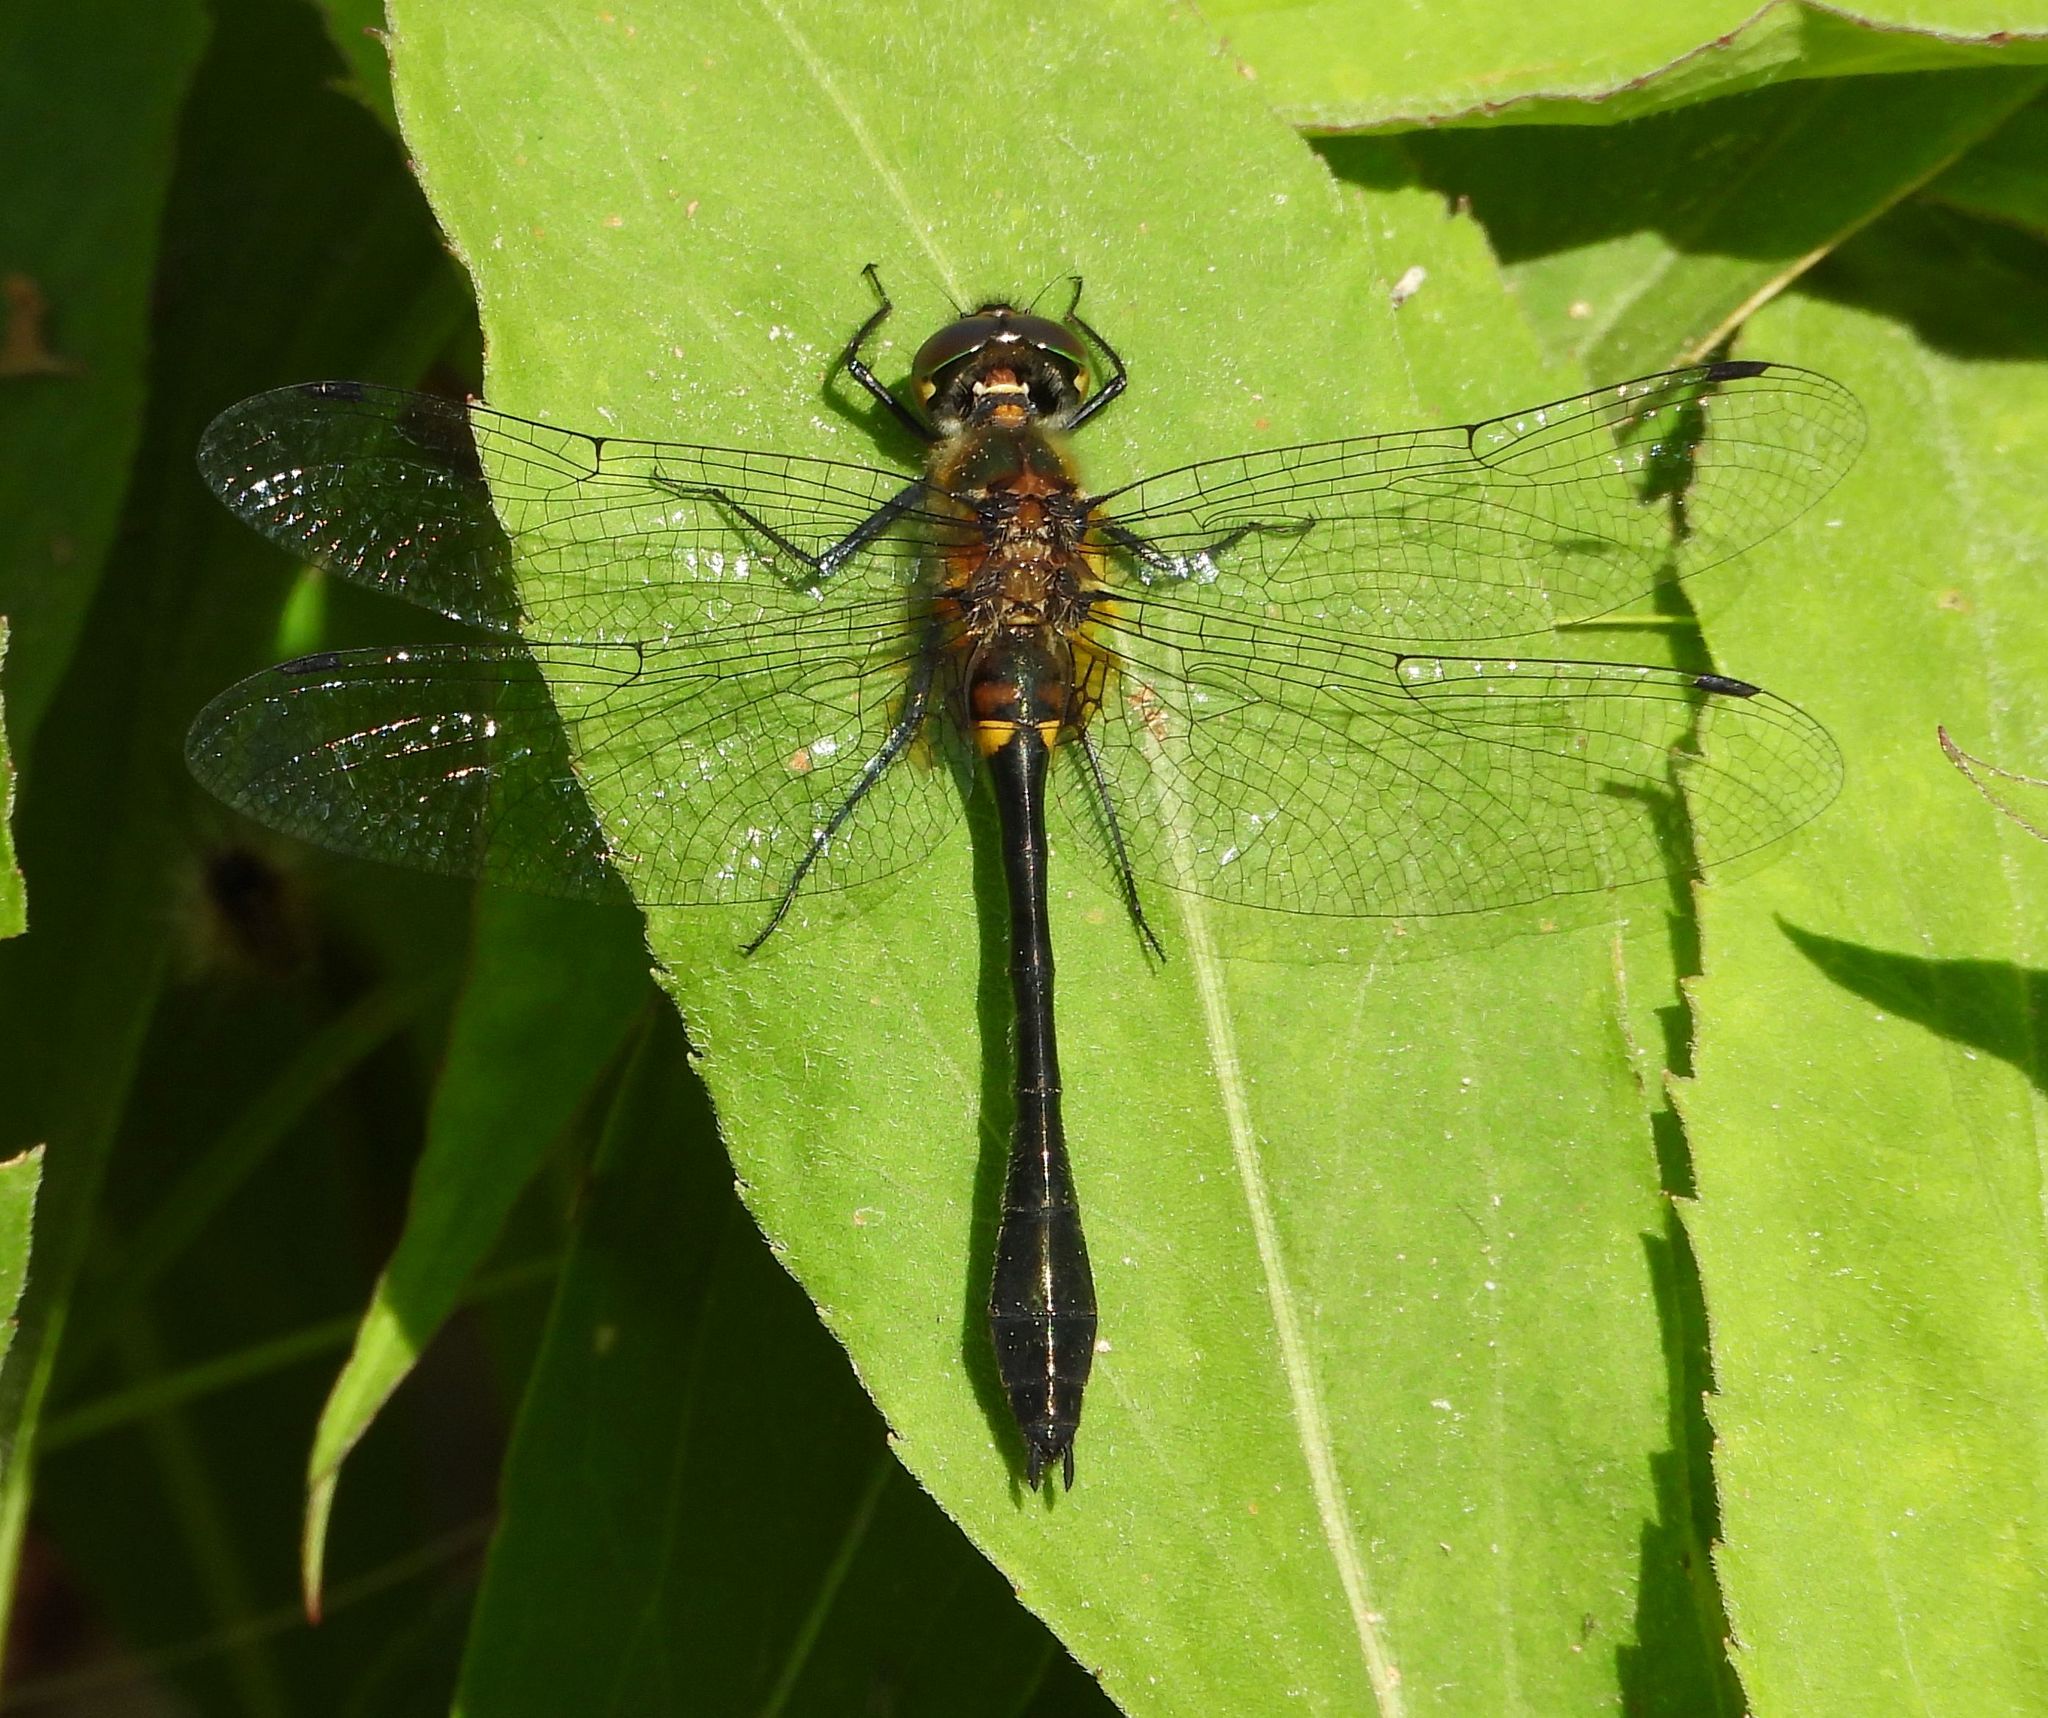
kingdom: Animalia
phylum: Arthropoda
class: Insecta
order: Odonata
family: Corduliidae
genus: Dorocordulia
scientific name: Dorocordulia libera
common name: Racket-tailed emerald
